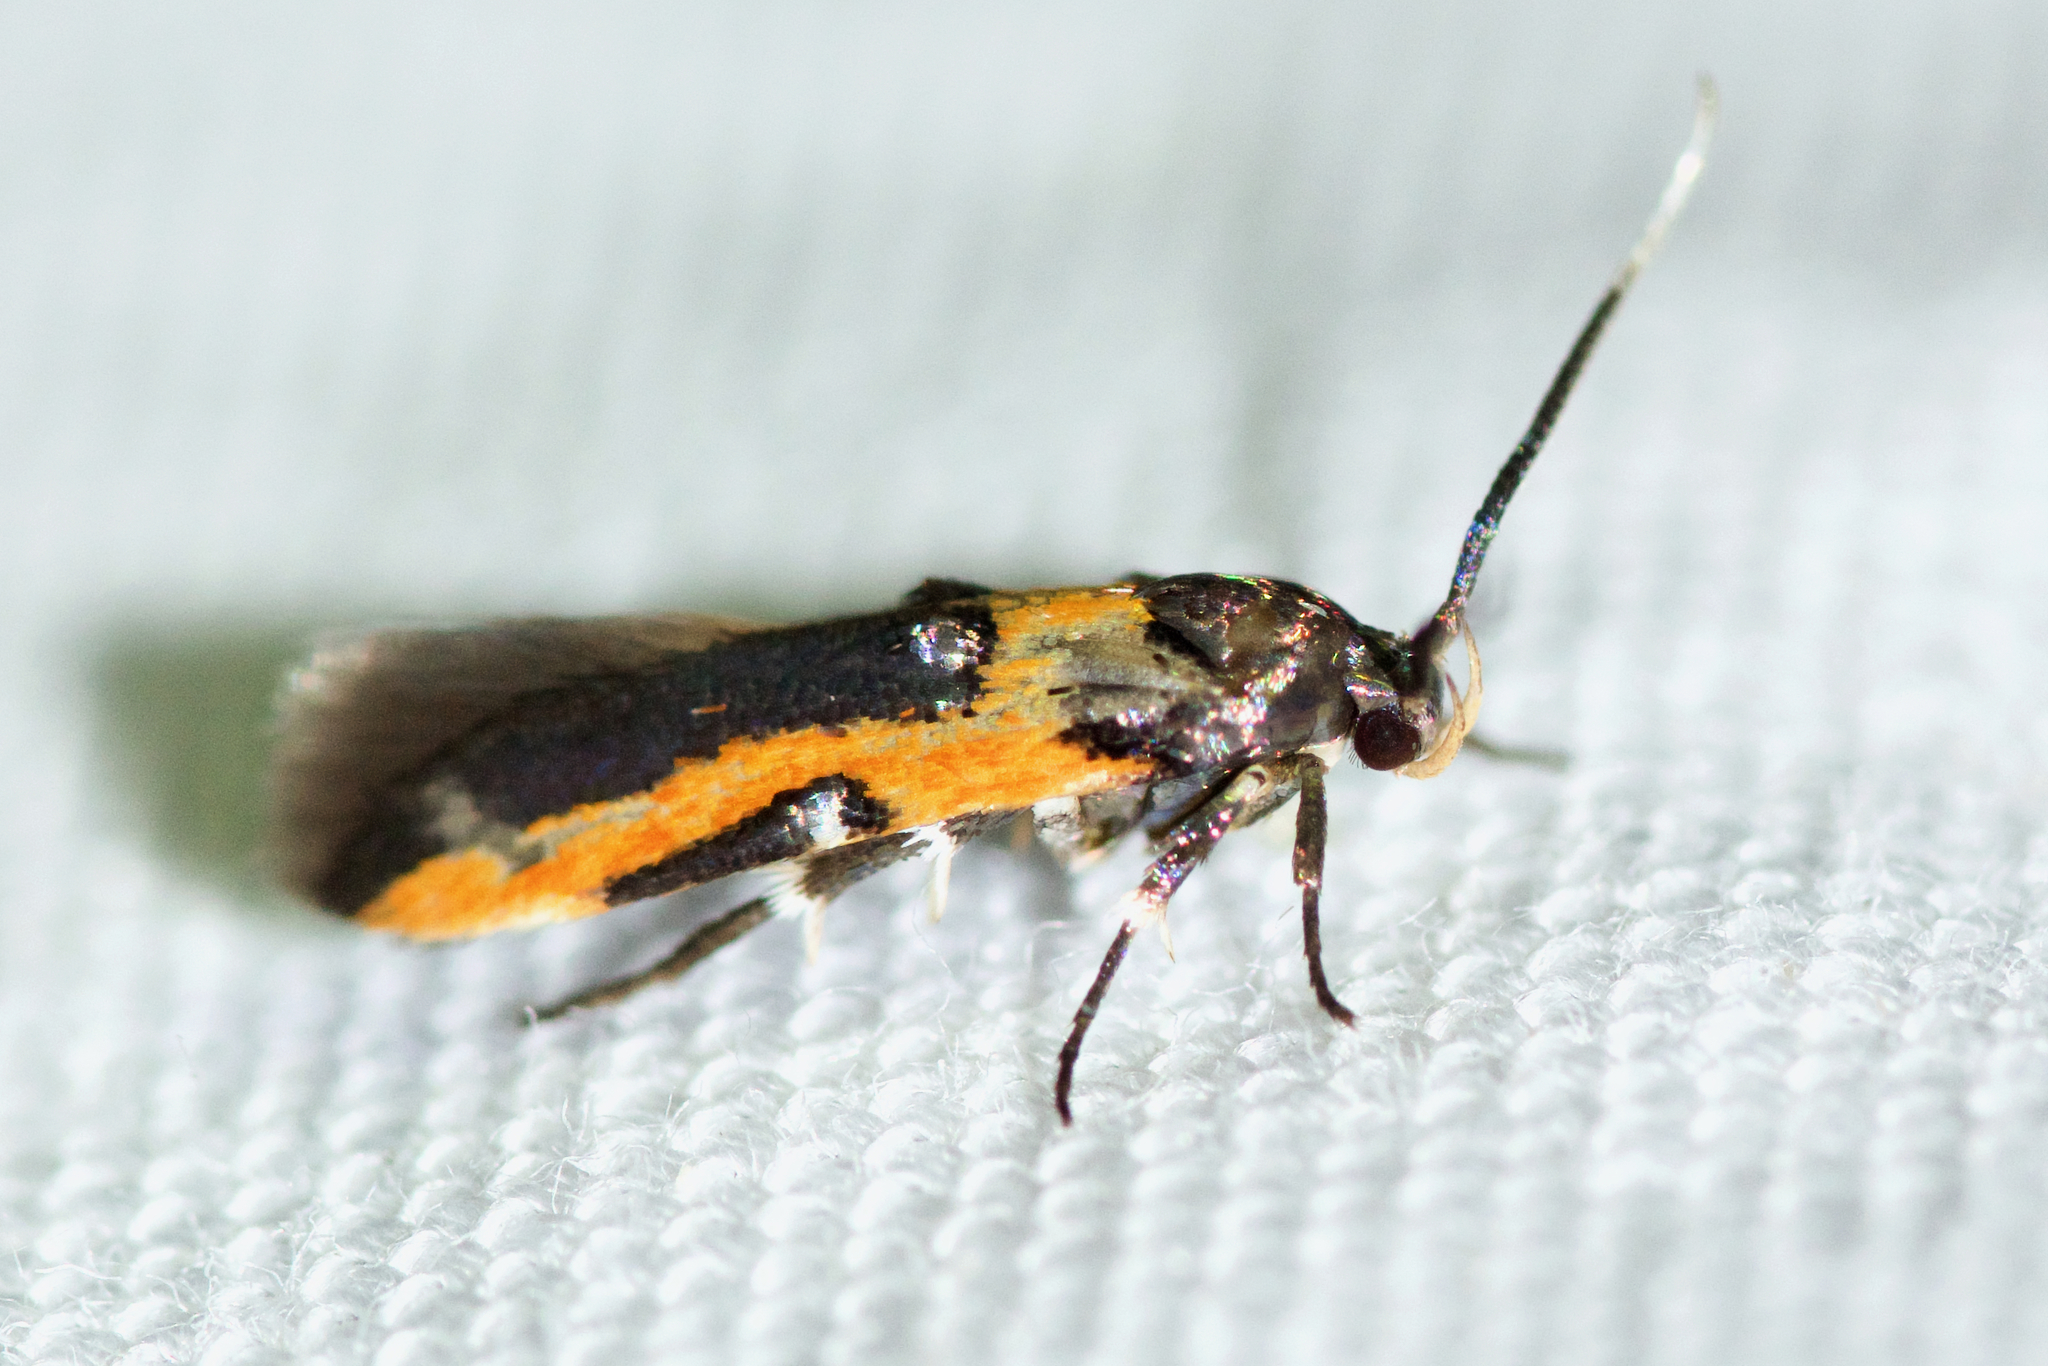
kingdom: Animalia
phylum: Arthropoda
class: Insecta
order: Lepidoptera
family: Cosmopterigidae
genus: Euclemensia
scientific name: Euclemensia bassettella
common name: Kermes scale moth
